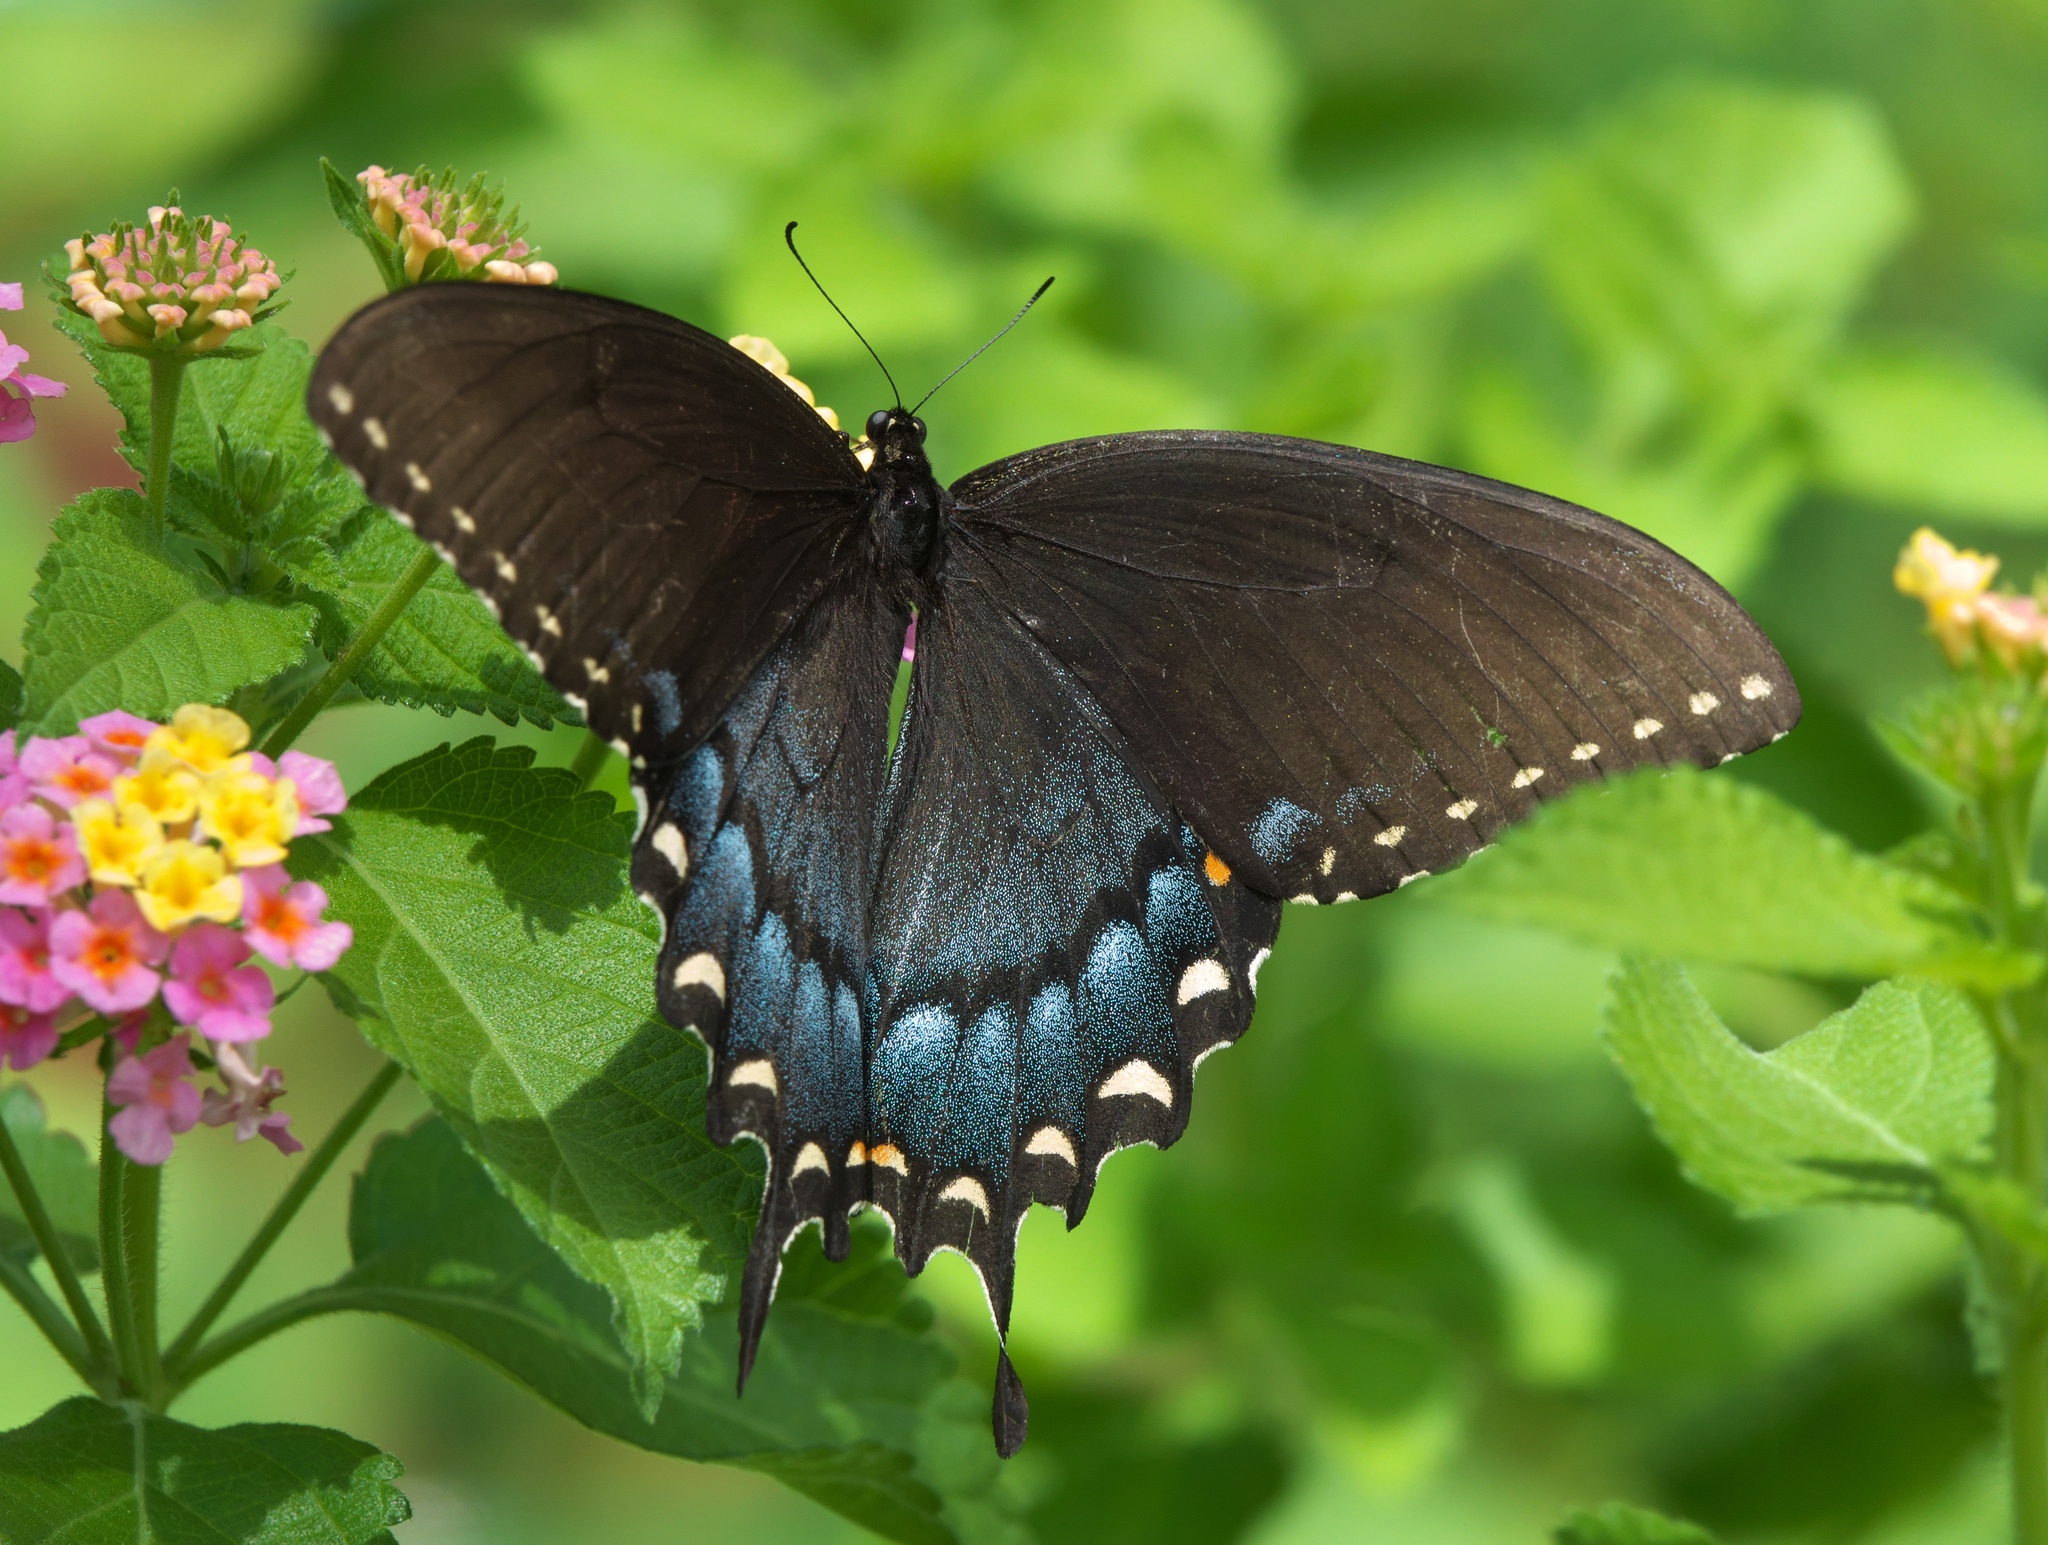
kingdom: Animalia
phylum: Arthropoda
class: Insecta
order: Lepidoptera
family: Papilionidae
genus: Papilio
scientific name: Papilio glaucus
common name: Tiger swallowtail
